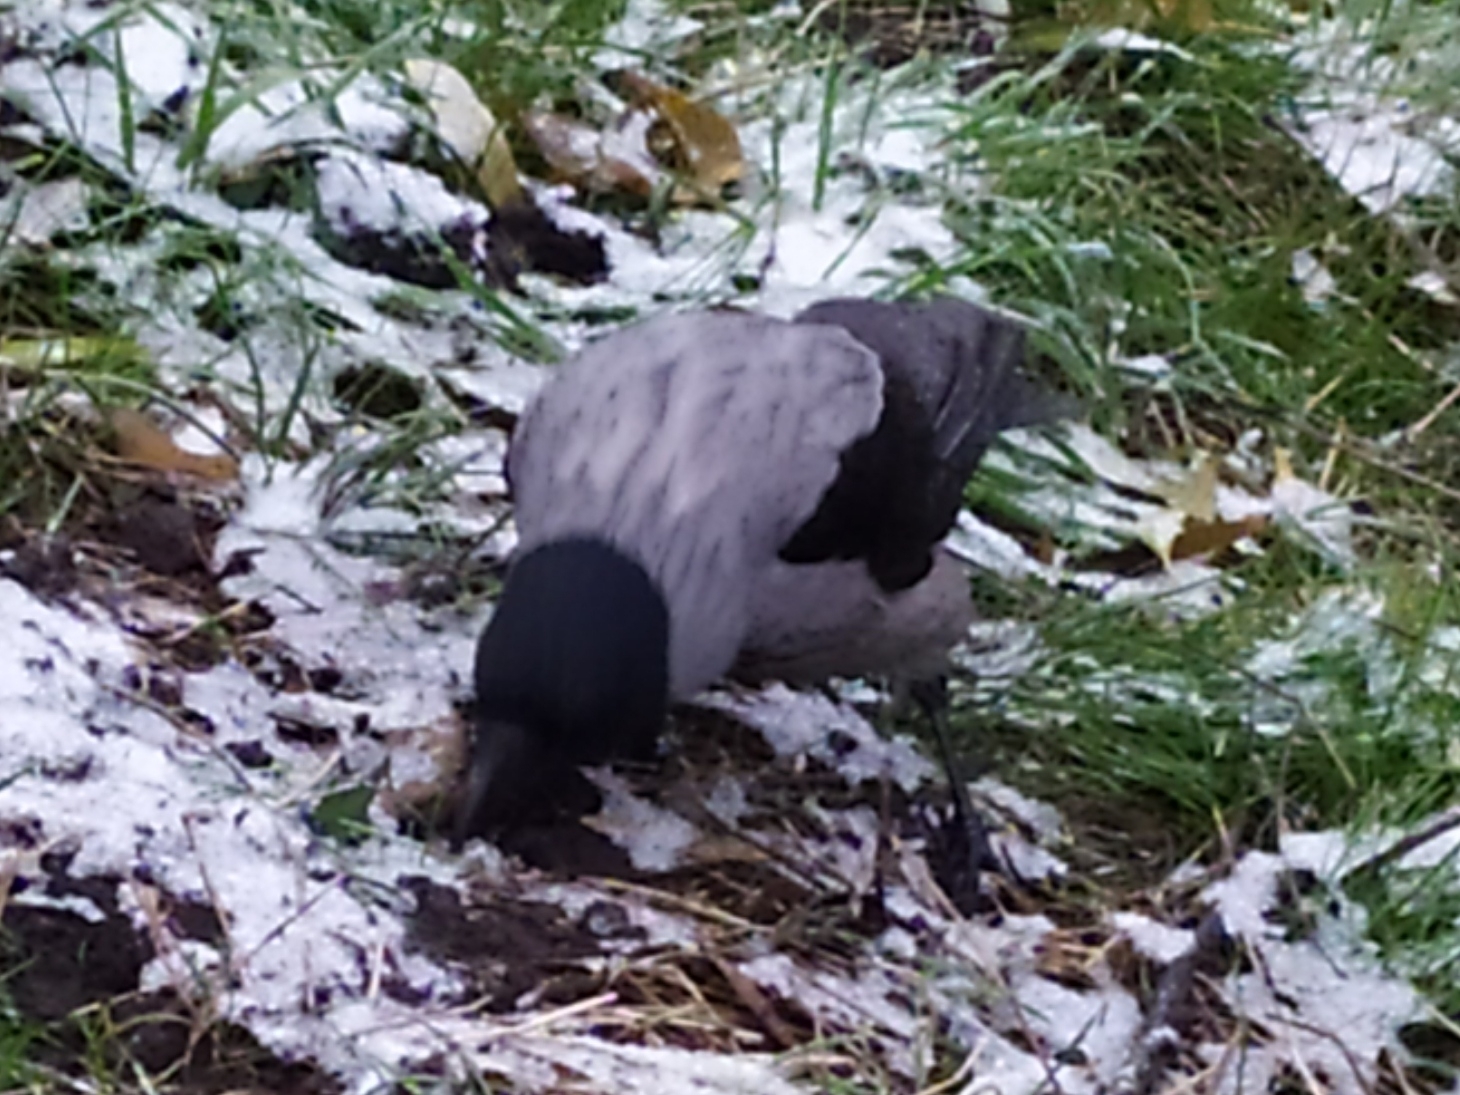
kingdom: Animalia
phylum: Chordata
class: Aves
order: Passeriformes
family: Corvidae
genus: Corvus
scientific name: Corvus cornix
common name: Hooded crow
